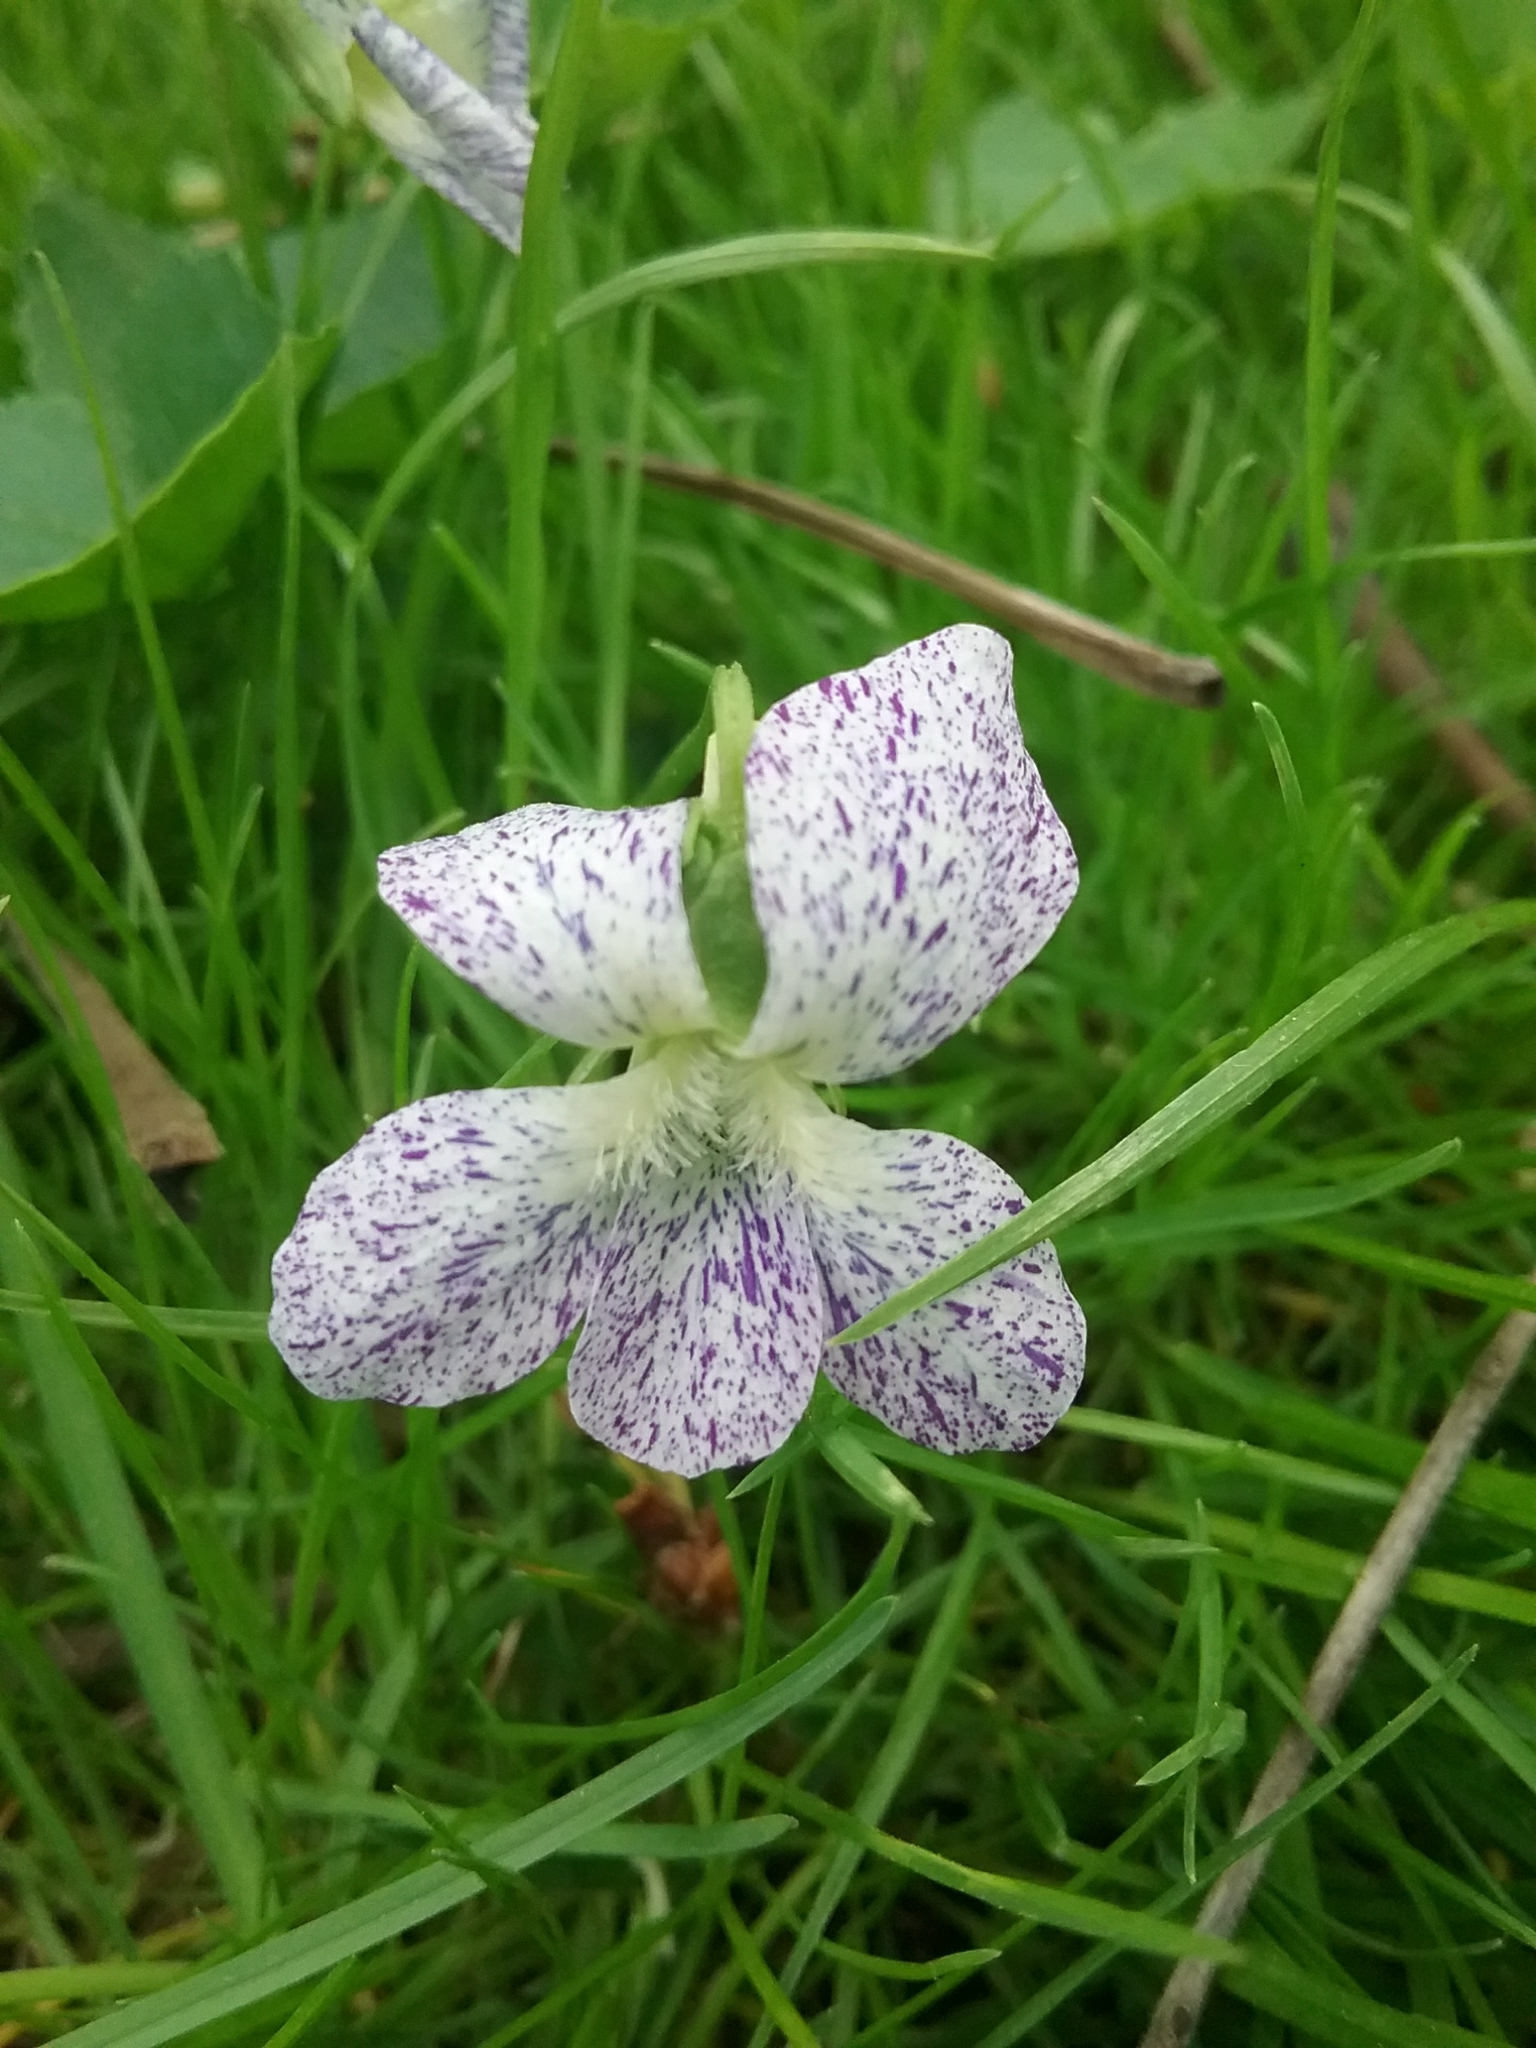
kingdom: Plantae
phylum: Tracheophyta
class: Magnoliopsida
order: Malpighiales
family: Violaceae
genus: Viola
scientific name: Viola sororia
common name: Dooryard violet
